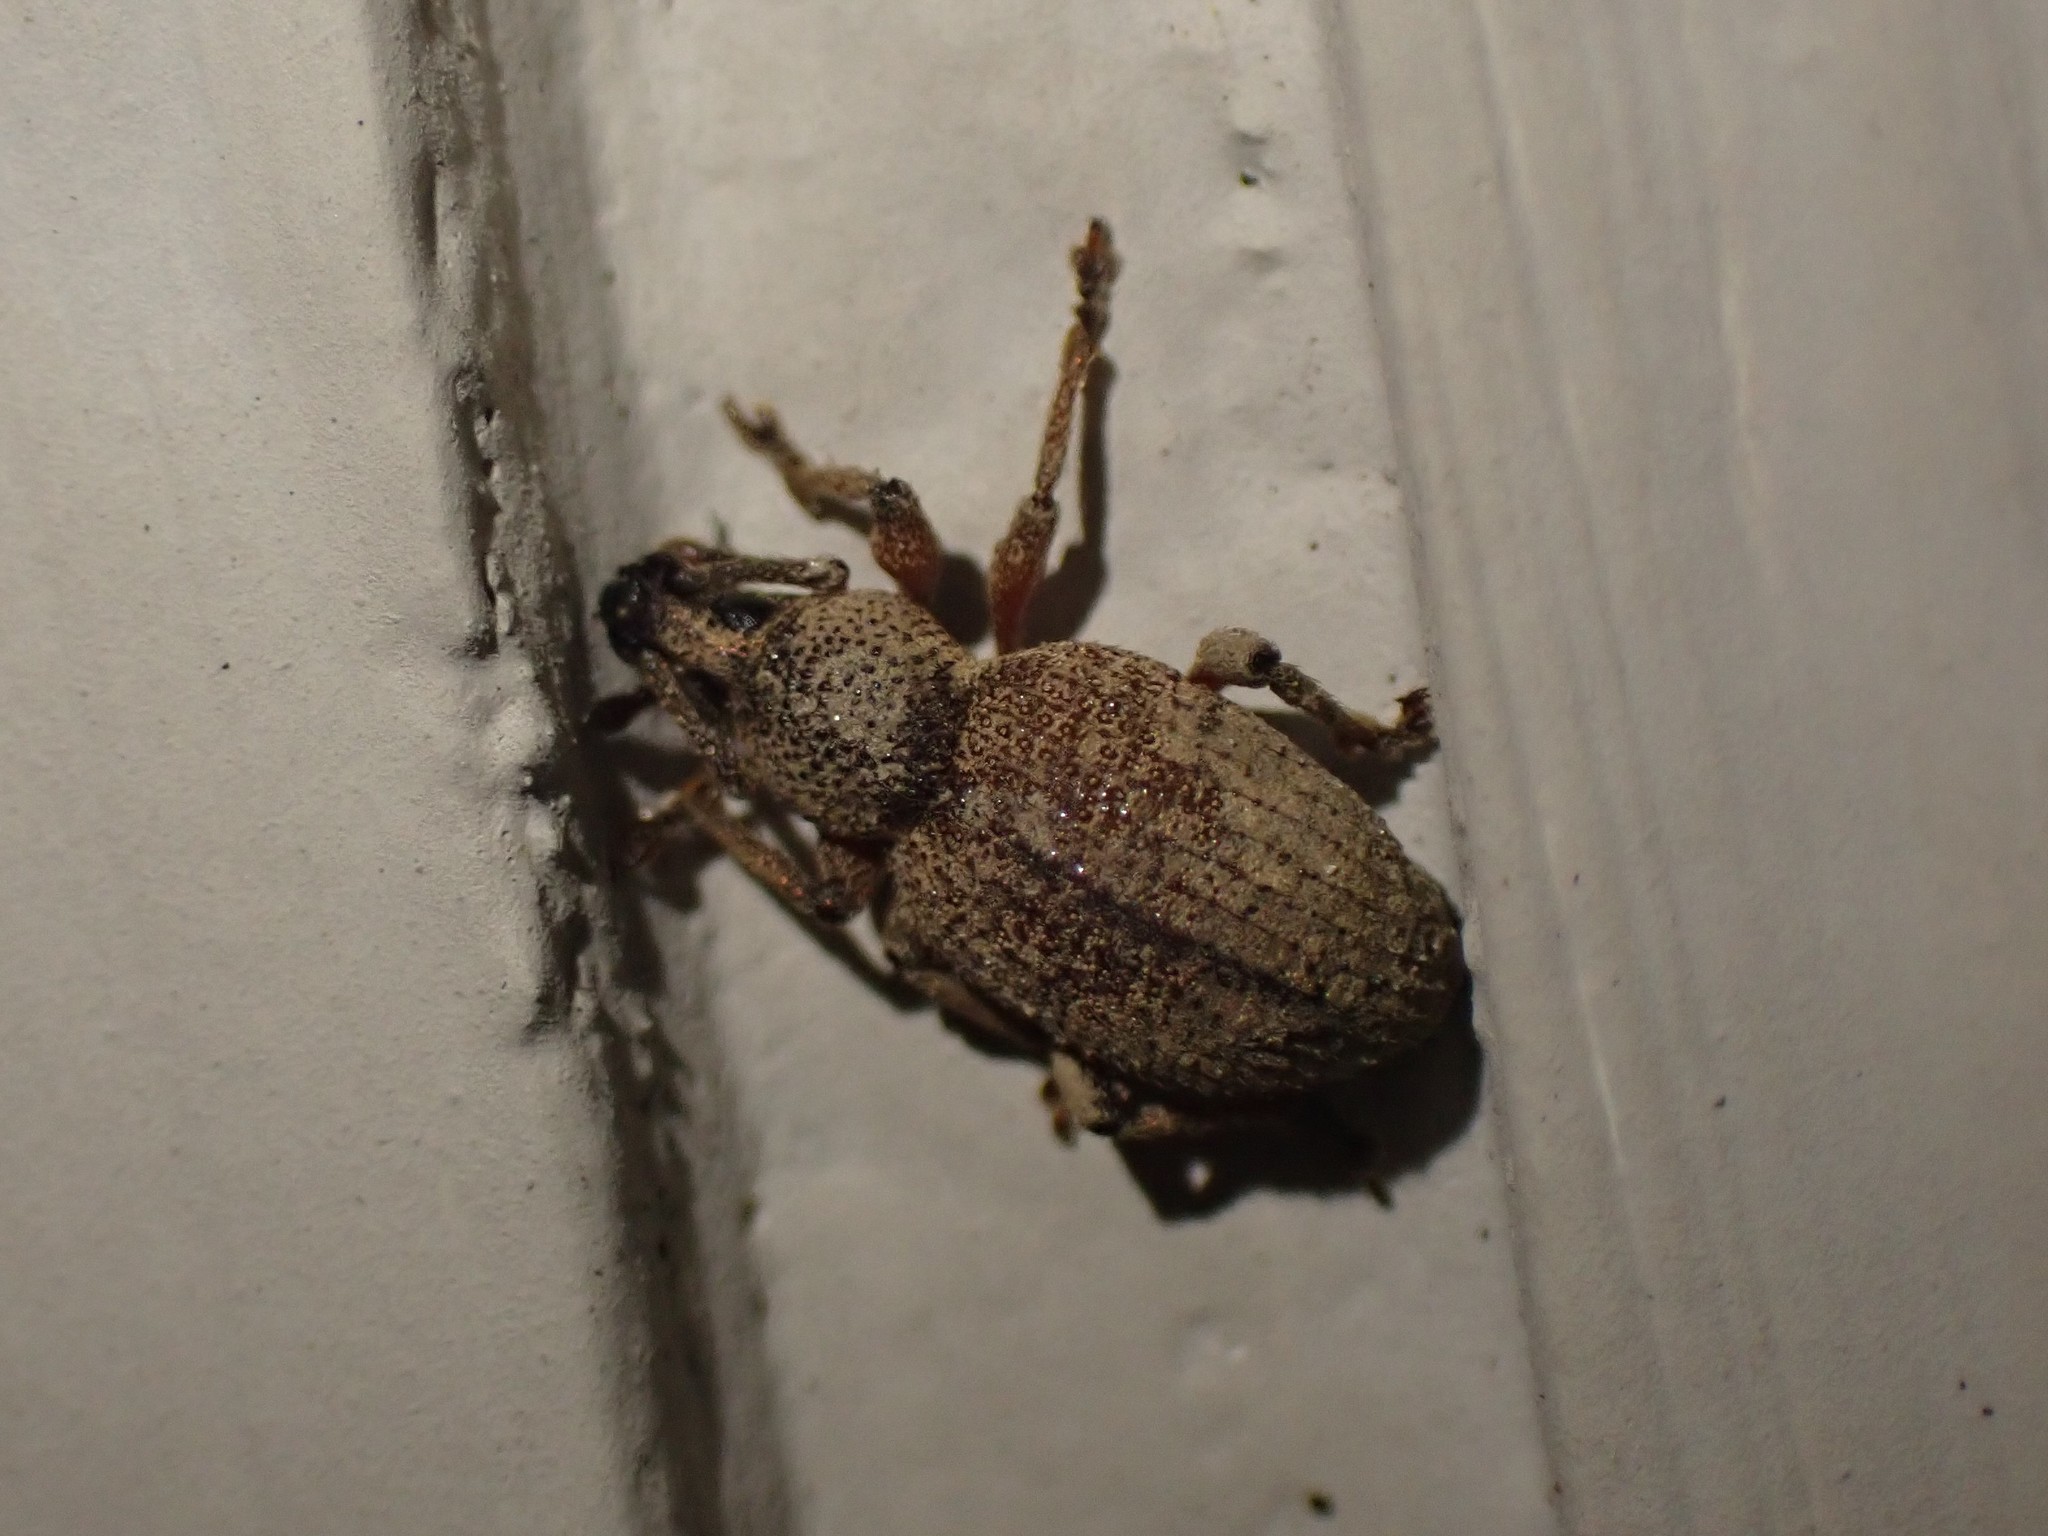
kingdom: Animalia
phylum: Arthropoda
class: Insecta
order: Coleoptera
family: Curculionidae
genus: Otiorhynchus
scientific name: Otiorhynchus singularis
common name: Clay-coloured weevil
